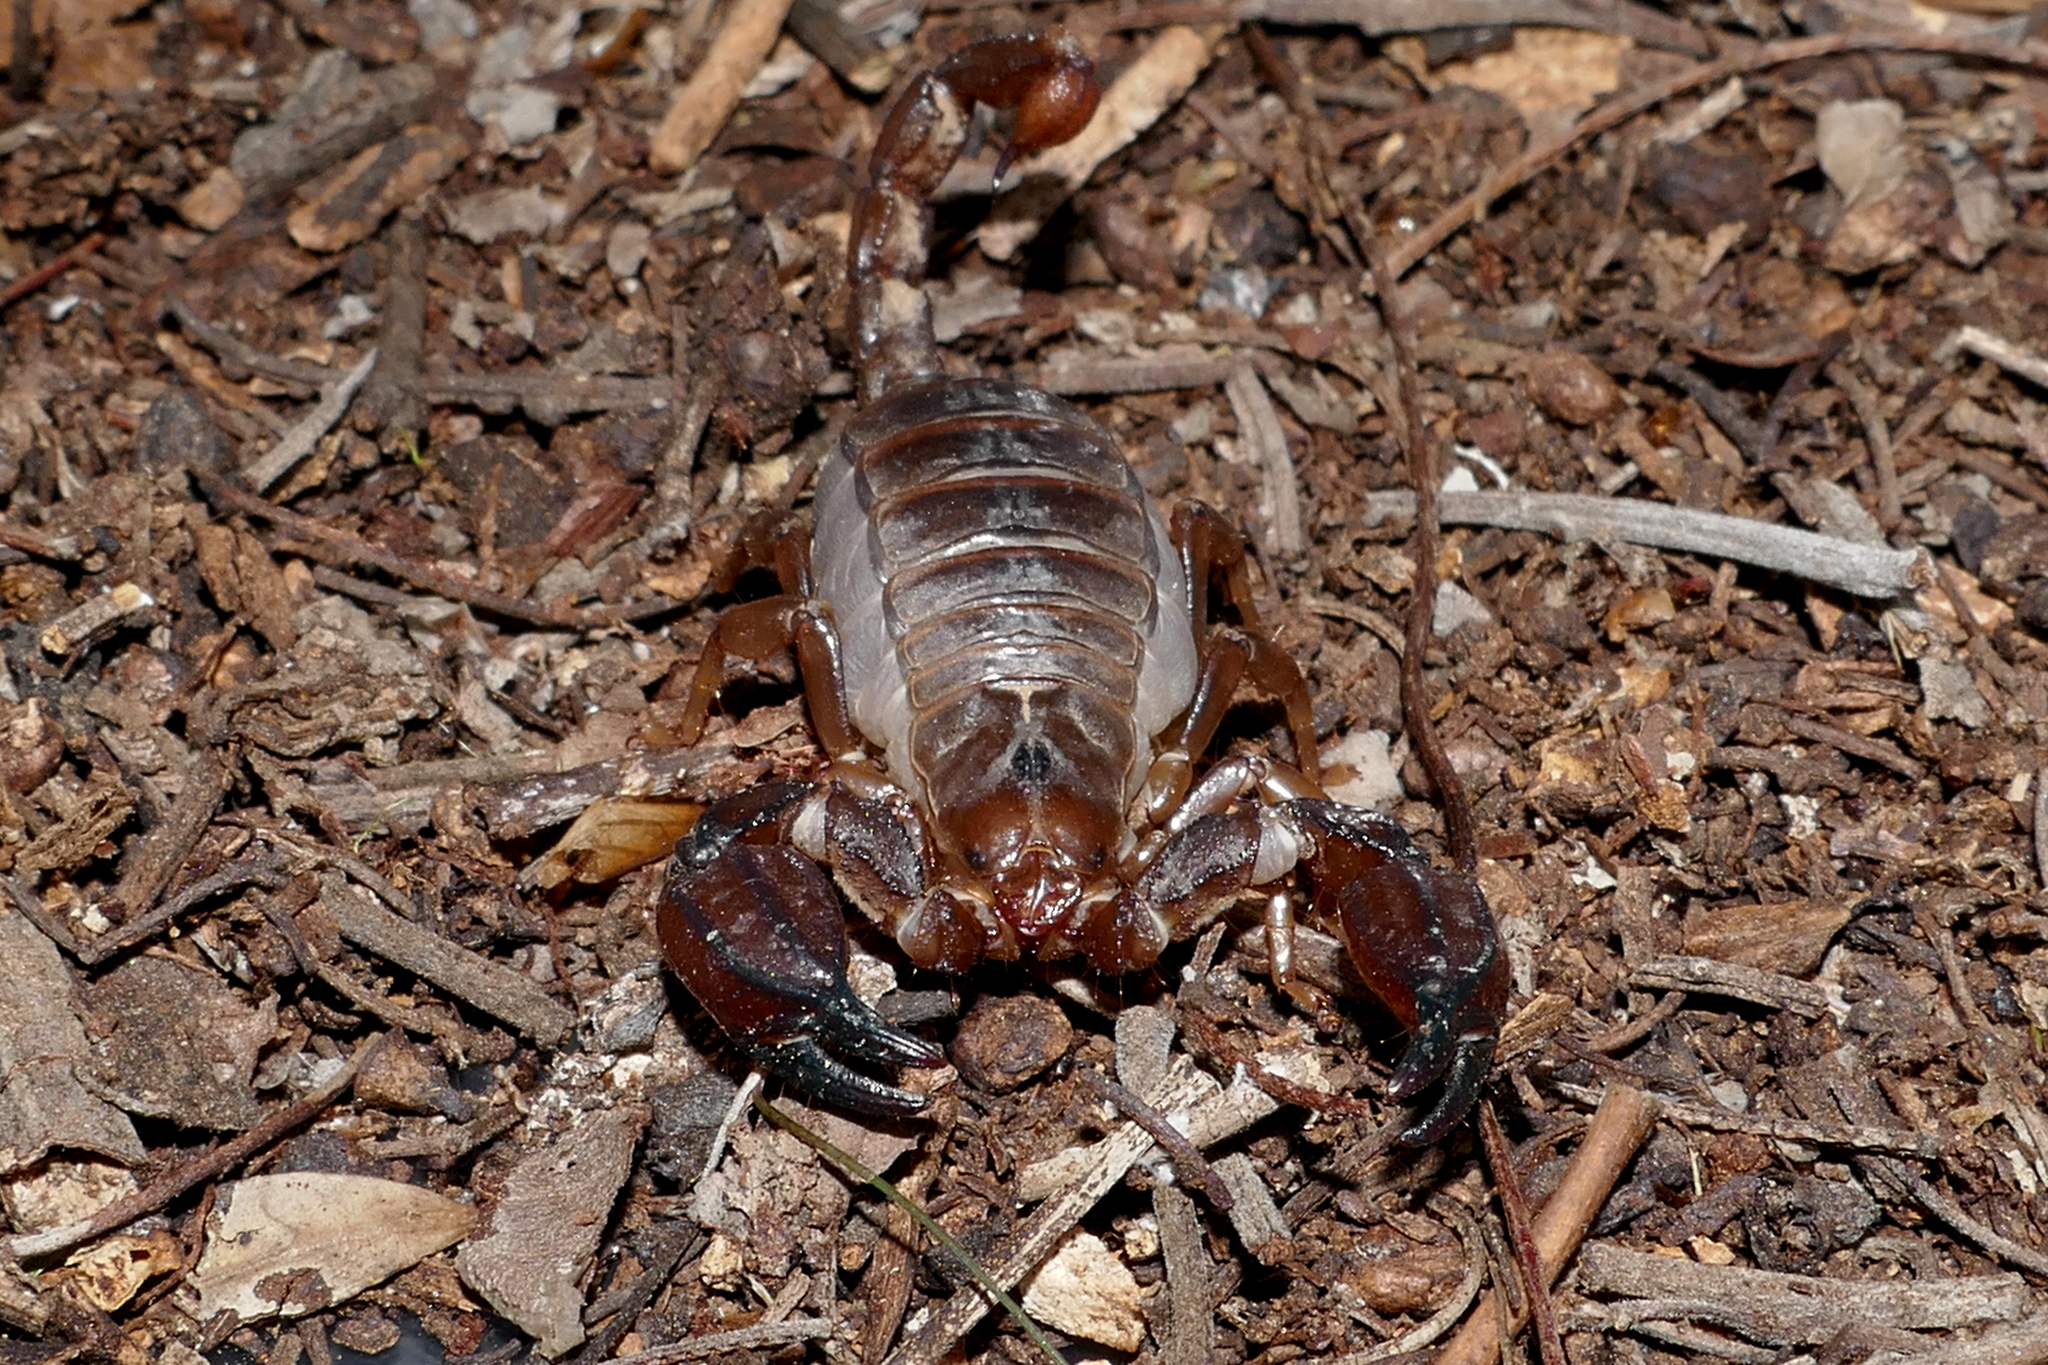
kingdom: Animalia
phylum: Arthropoda
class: Arachnida
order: Scorpiones
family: Scorpionidae
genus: Urodacus
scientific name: Urodacus manicatus
